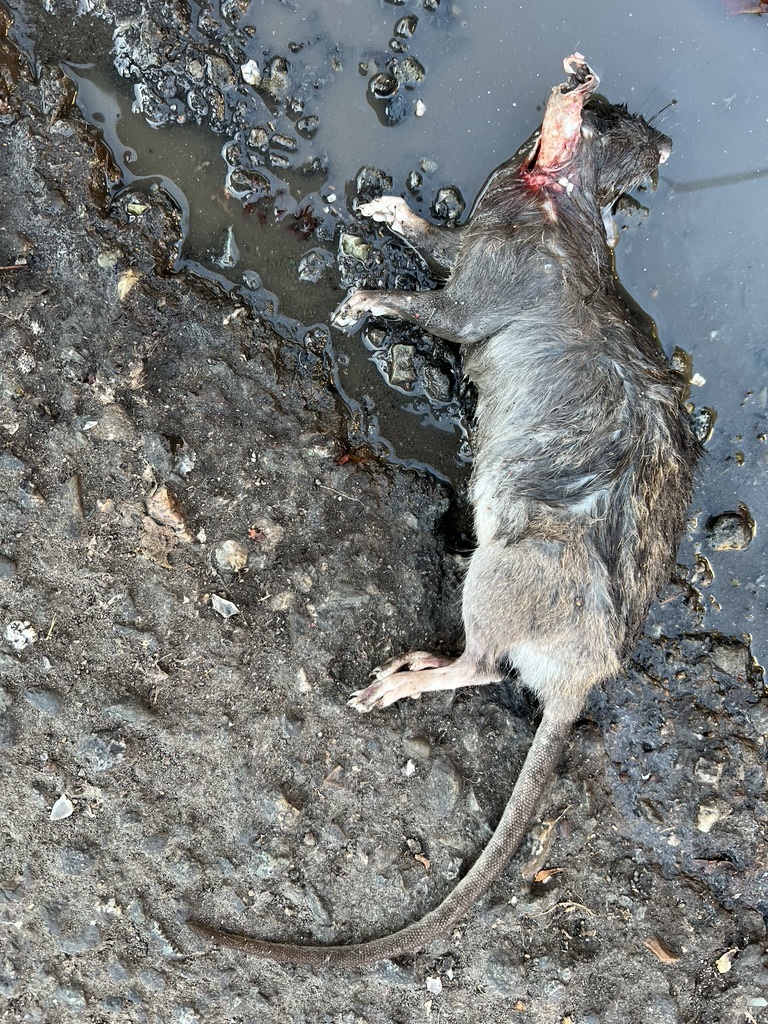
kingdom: Animalia
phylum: Chordata
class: Mammalia
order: Rodentia
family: Muridae
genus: Rattus
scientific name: Rattus norvegicus
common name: Brown rat
